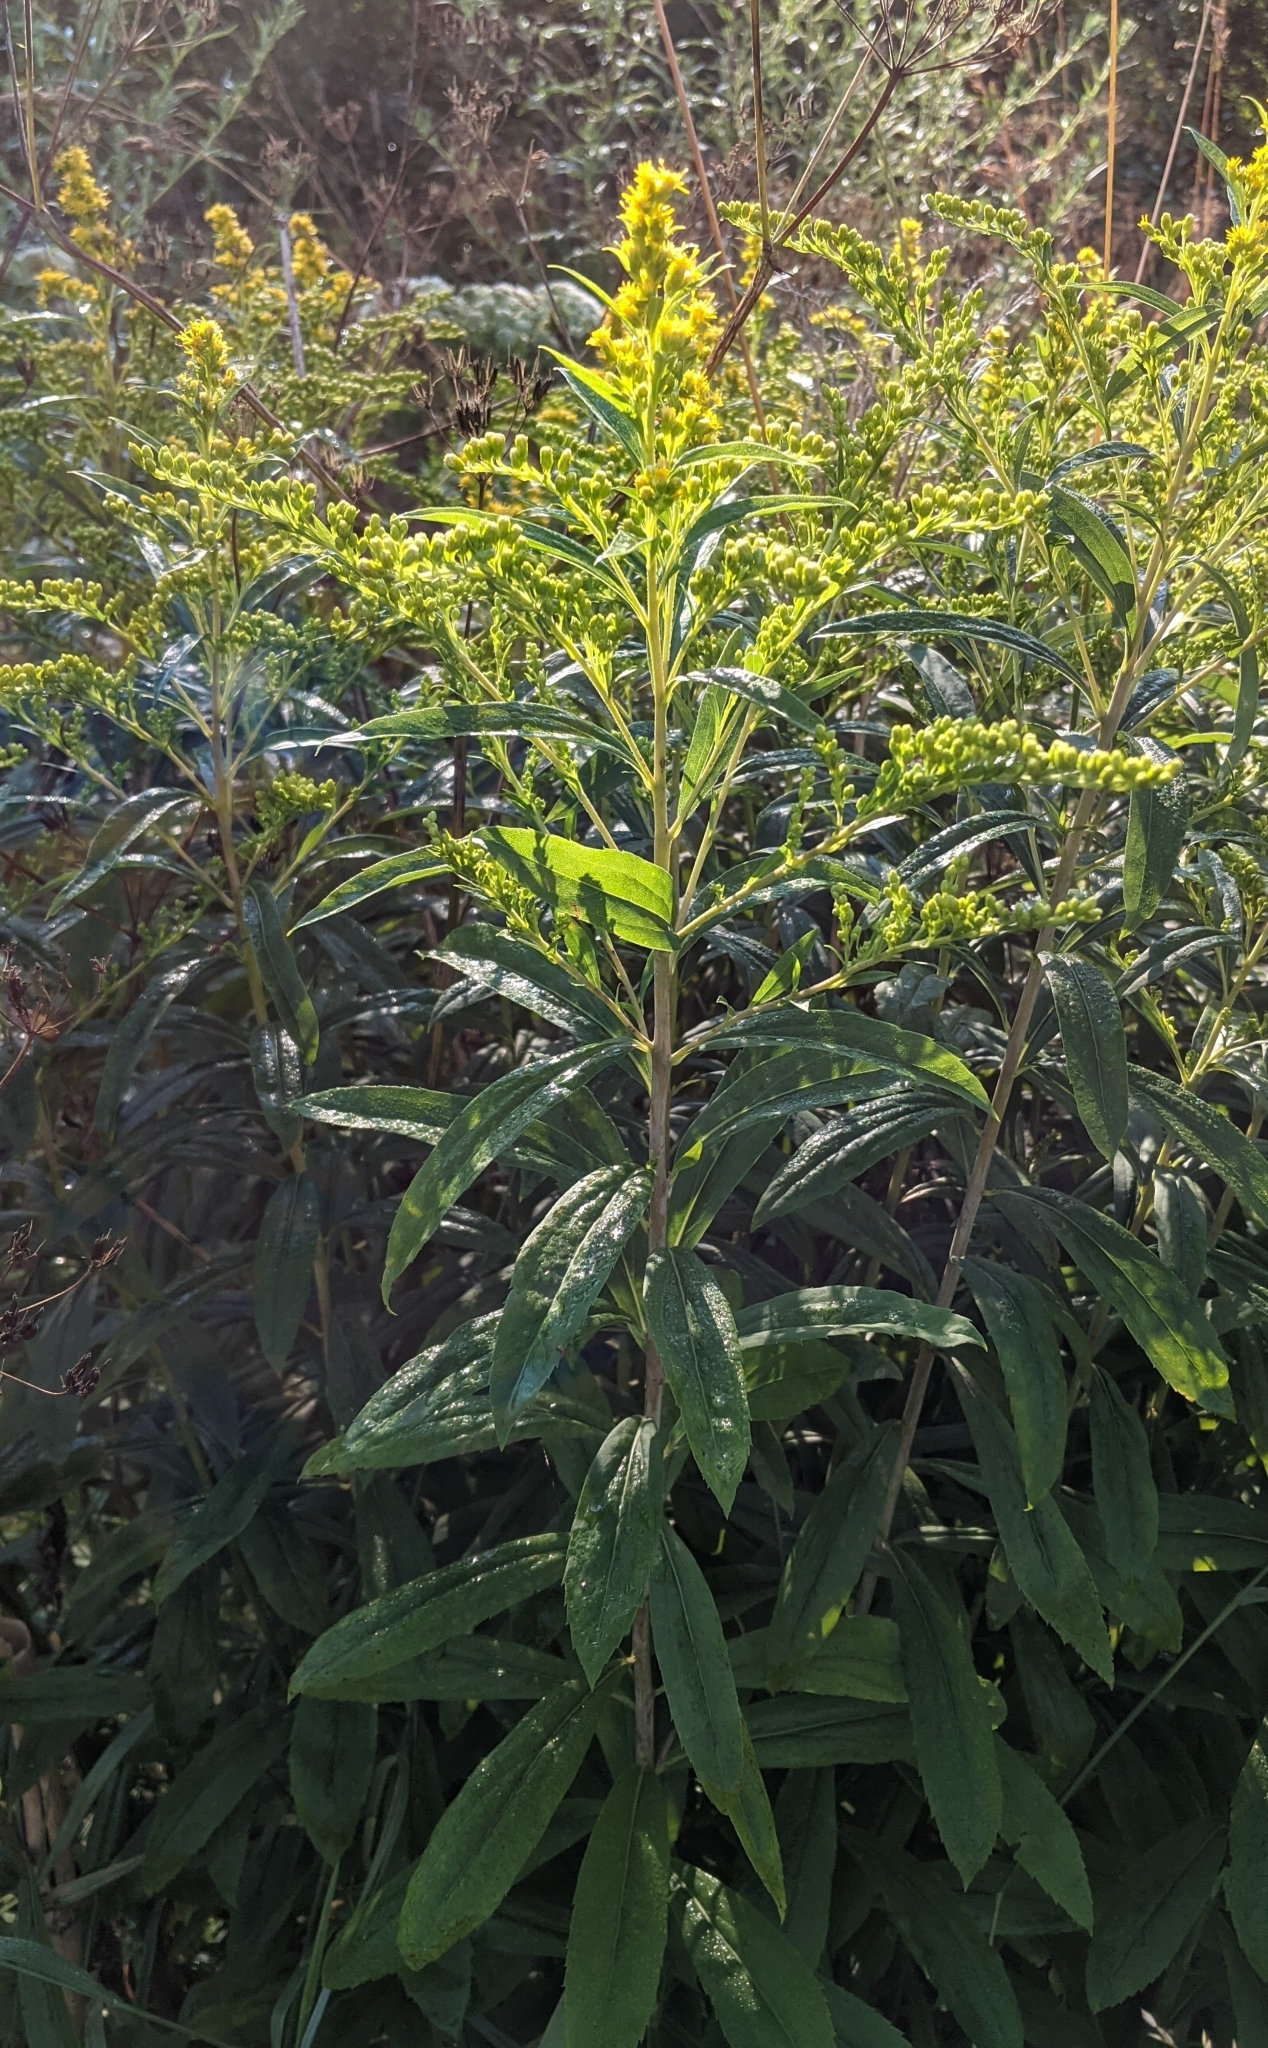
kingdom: Plantae
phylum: Tracheophyta
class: Magnoliopsida
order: Asterales
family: Asteraceae
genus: Solidago
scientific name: Solidago gigantea
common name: Giant goldenrod
